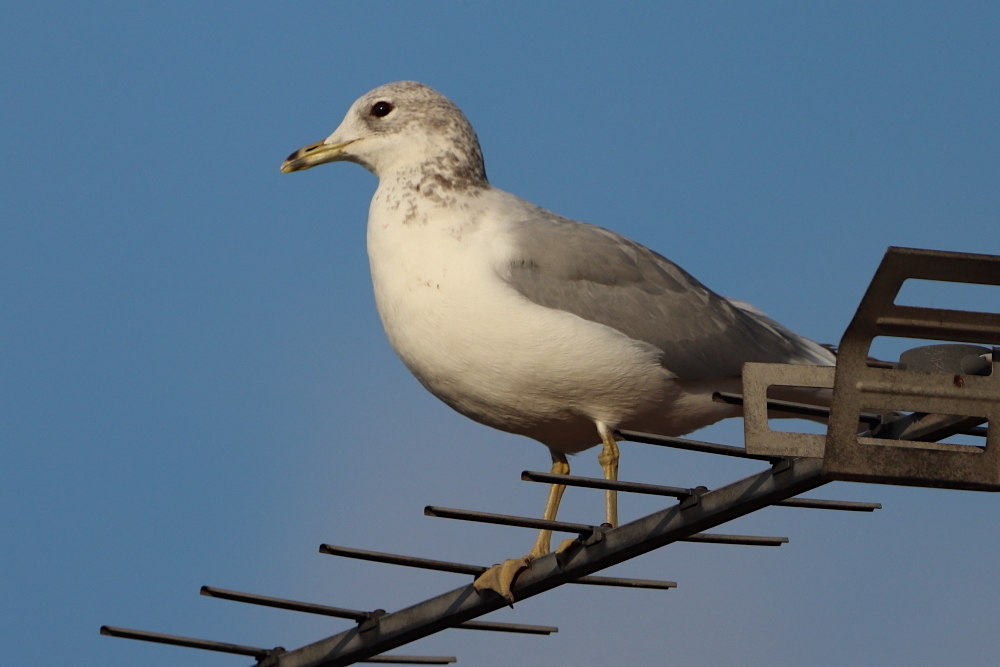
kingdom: Animalia
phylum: Chordata
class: Aves
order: Charadriiformes
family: Laridae
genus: Larus
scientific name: Larus canus
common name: Mew gull
